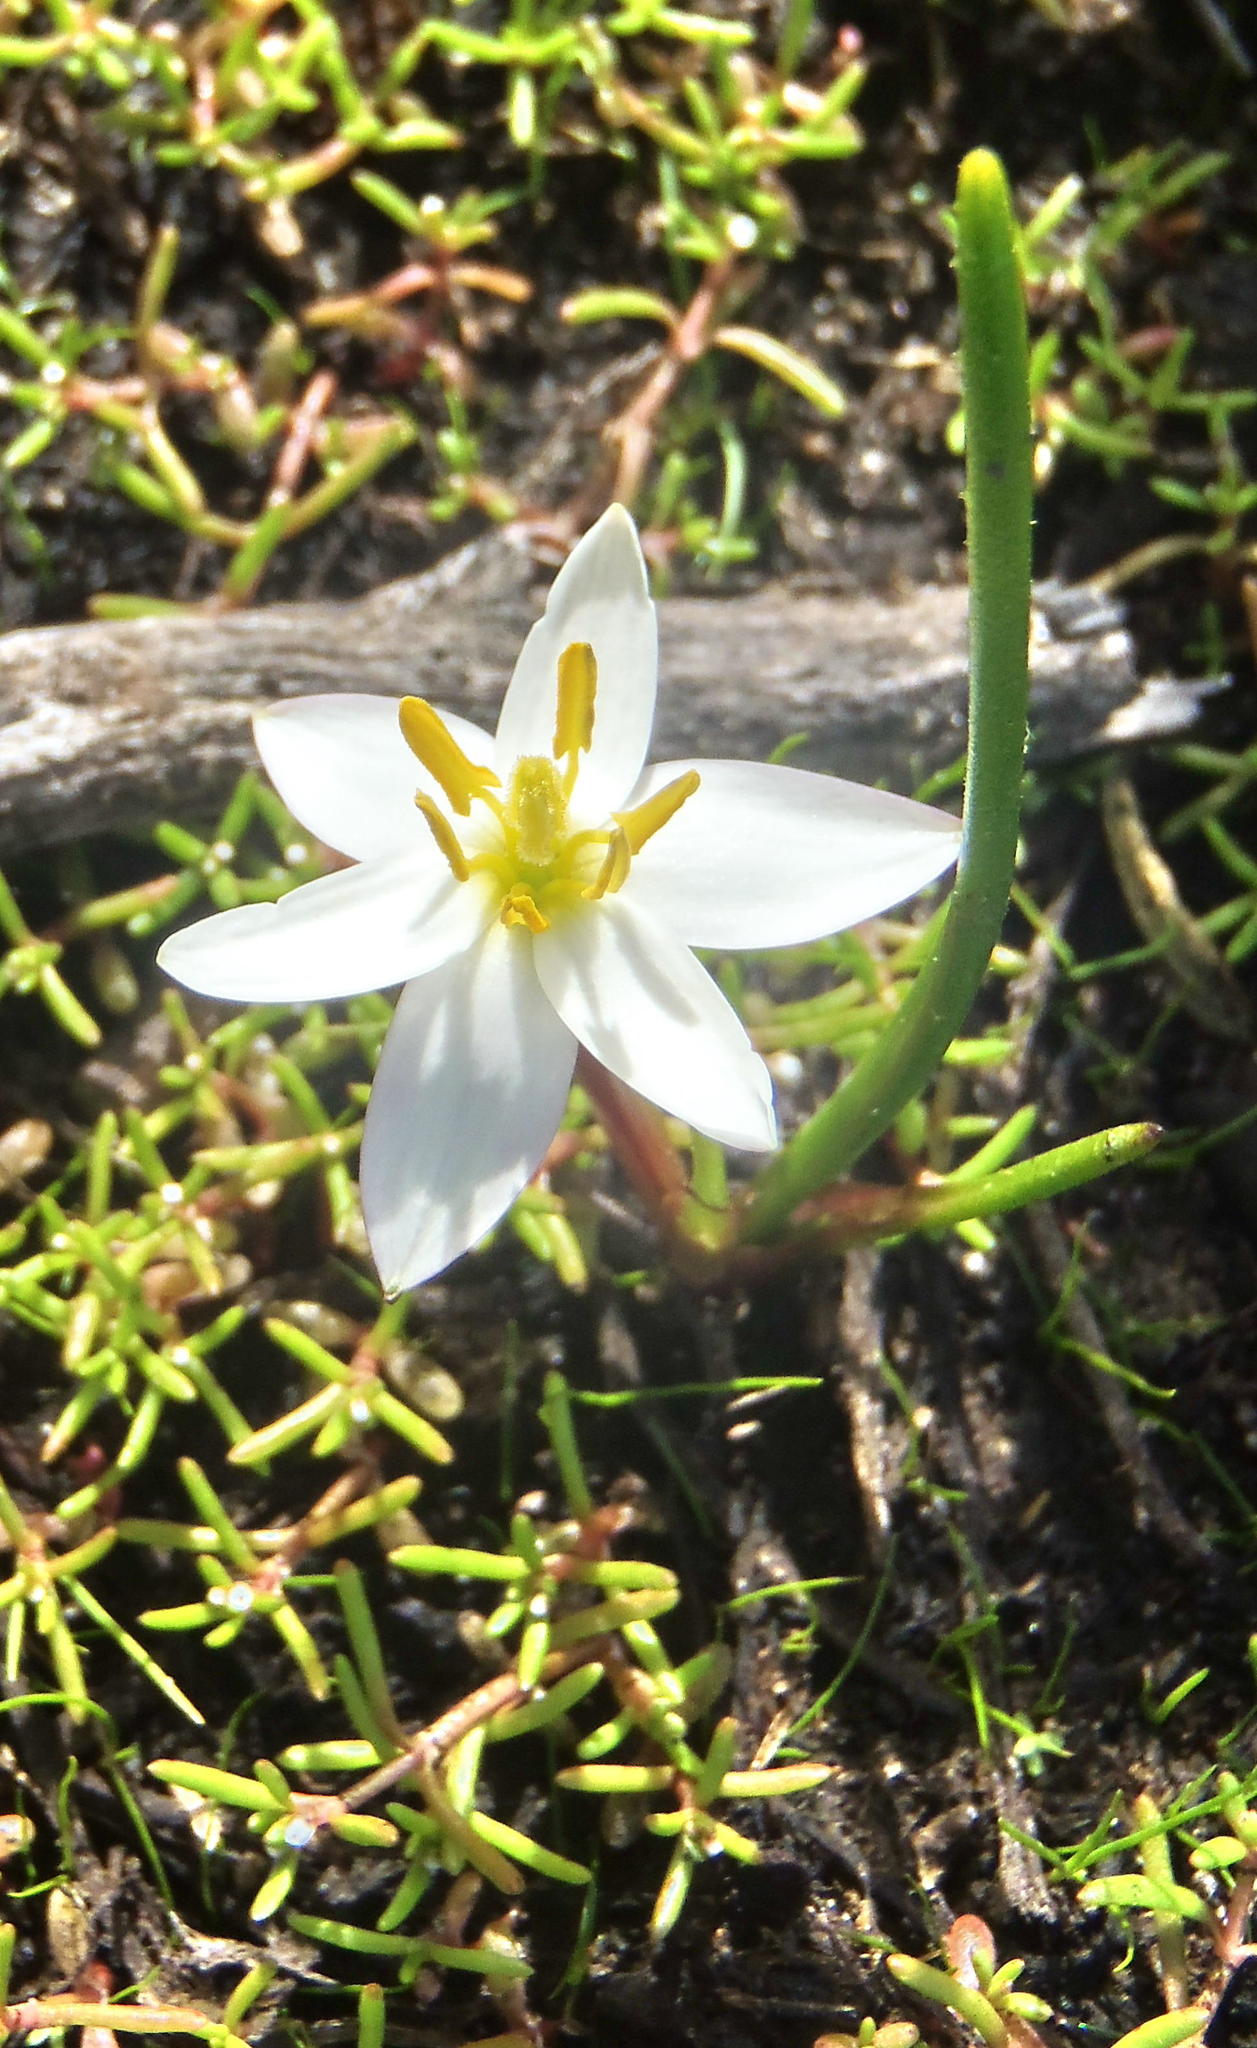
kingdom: Plantae
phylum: Tracheophyta
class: Liliopsida
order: Asparagales
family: Hypoxidaceae
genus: Pauridia
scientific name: Pauridia alba
